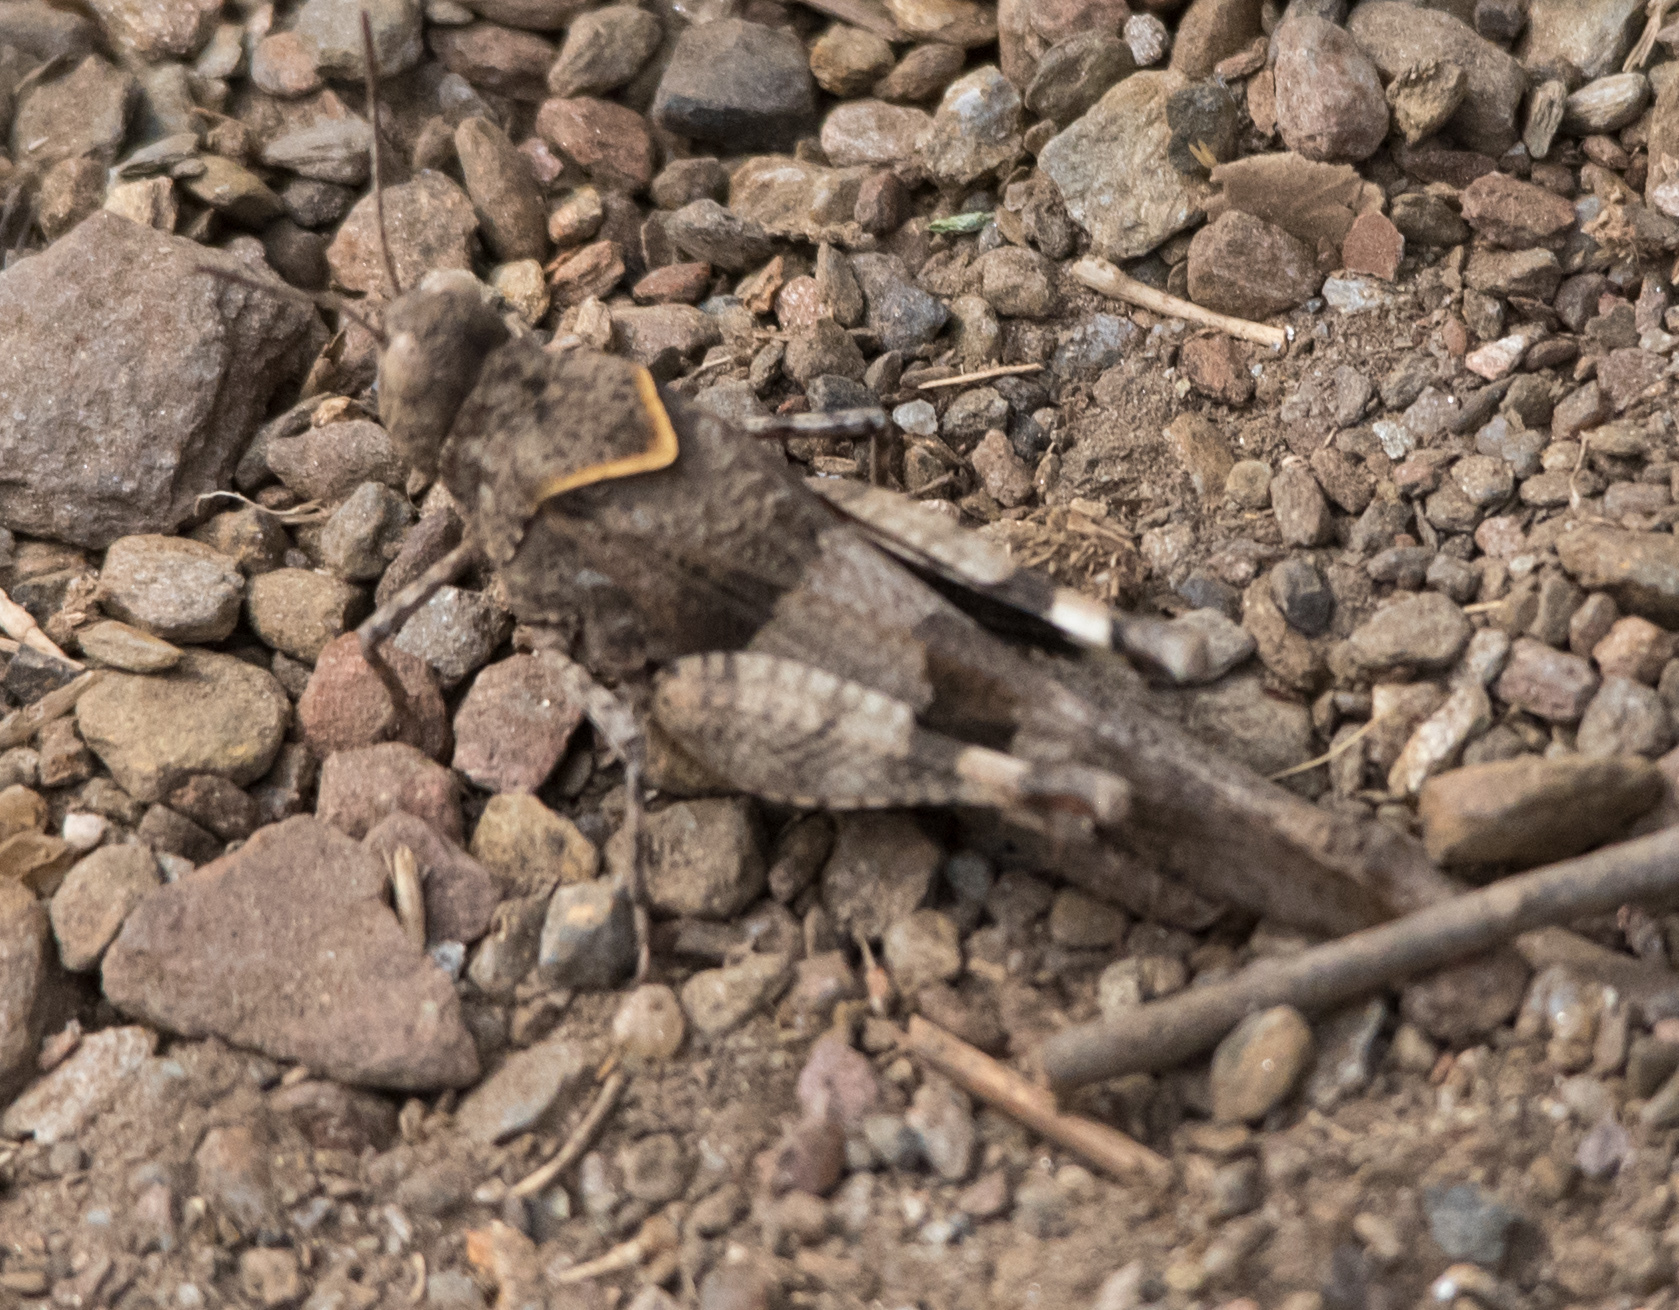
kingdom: Animalia
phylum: Arthropoda
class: Insecta
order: Orthoptera
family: Acrididae
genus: Oedipoda
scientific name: Oedipoda caerulescens
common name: Blue-winged grasshopper
